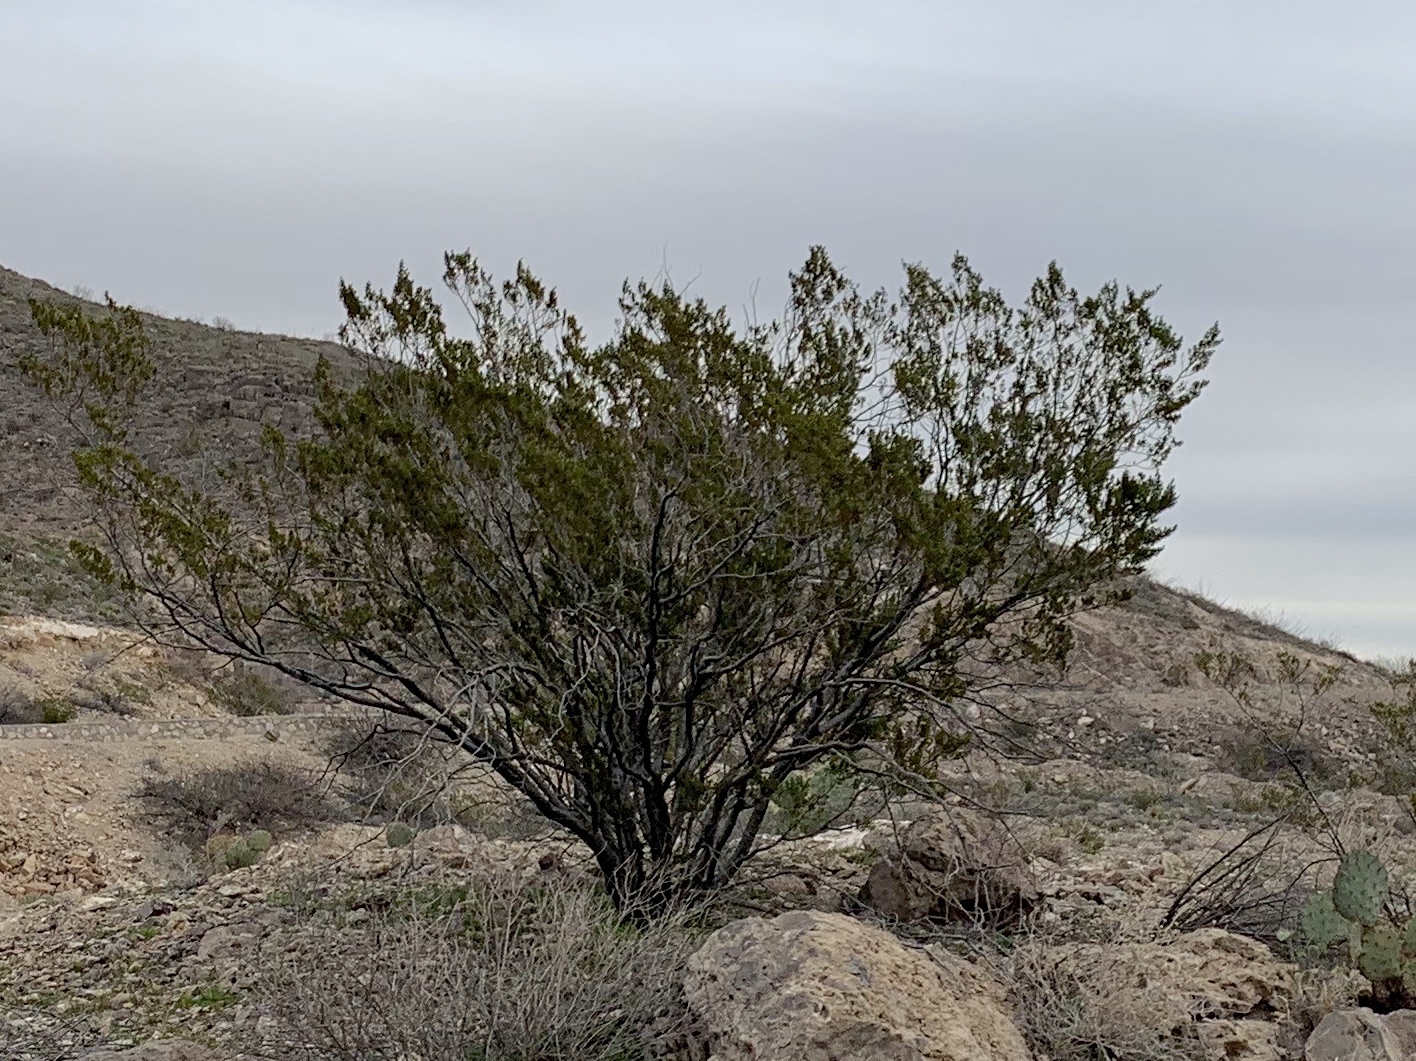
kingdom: Plantae
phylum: Tracheophyta
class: Magnoliopsida
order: Zygophyllales
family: Zygophyllaceae
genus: Larrea
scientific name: Larrea tridentata
